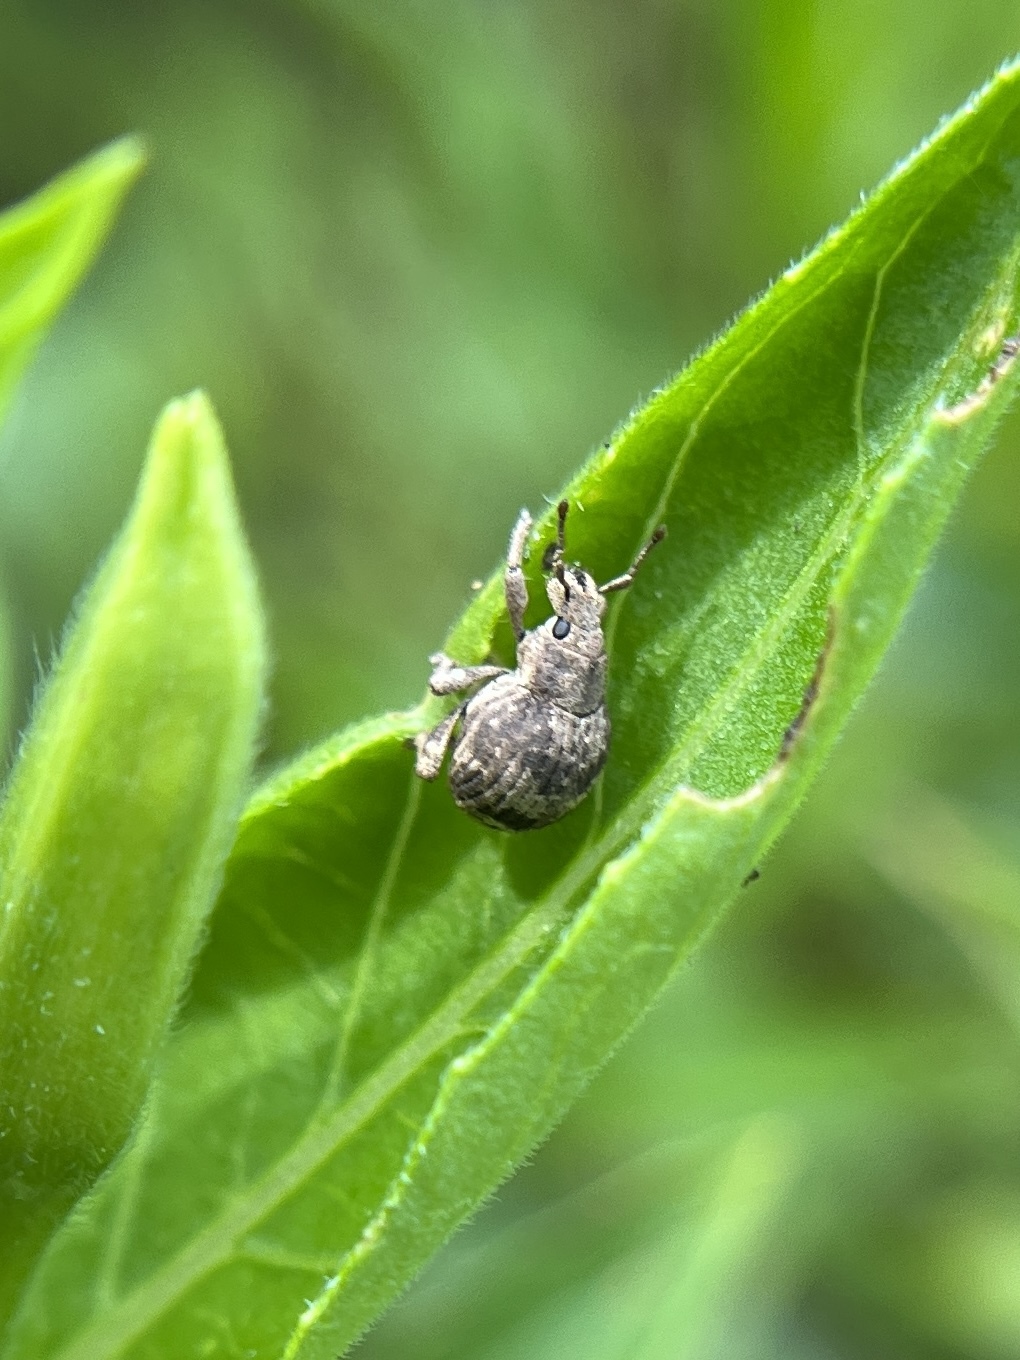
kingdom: Animalia
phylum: Arthropoda
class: Insecta
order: Coleoptera
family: Curculionidae
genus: Pseudocneorhinus
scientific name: Pseudocneorhinus bifasciatus
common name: Two-banded japanese weevil
